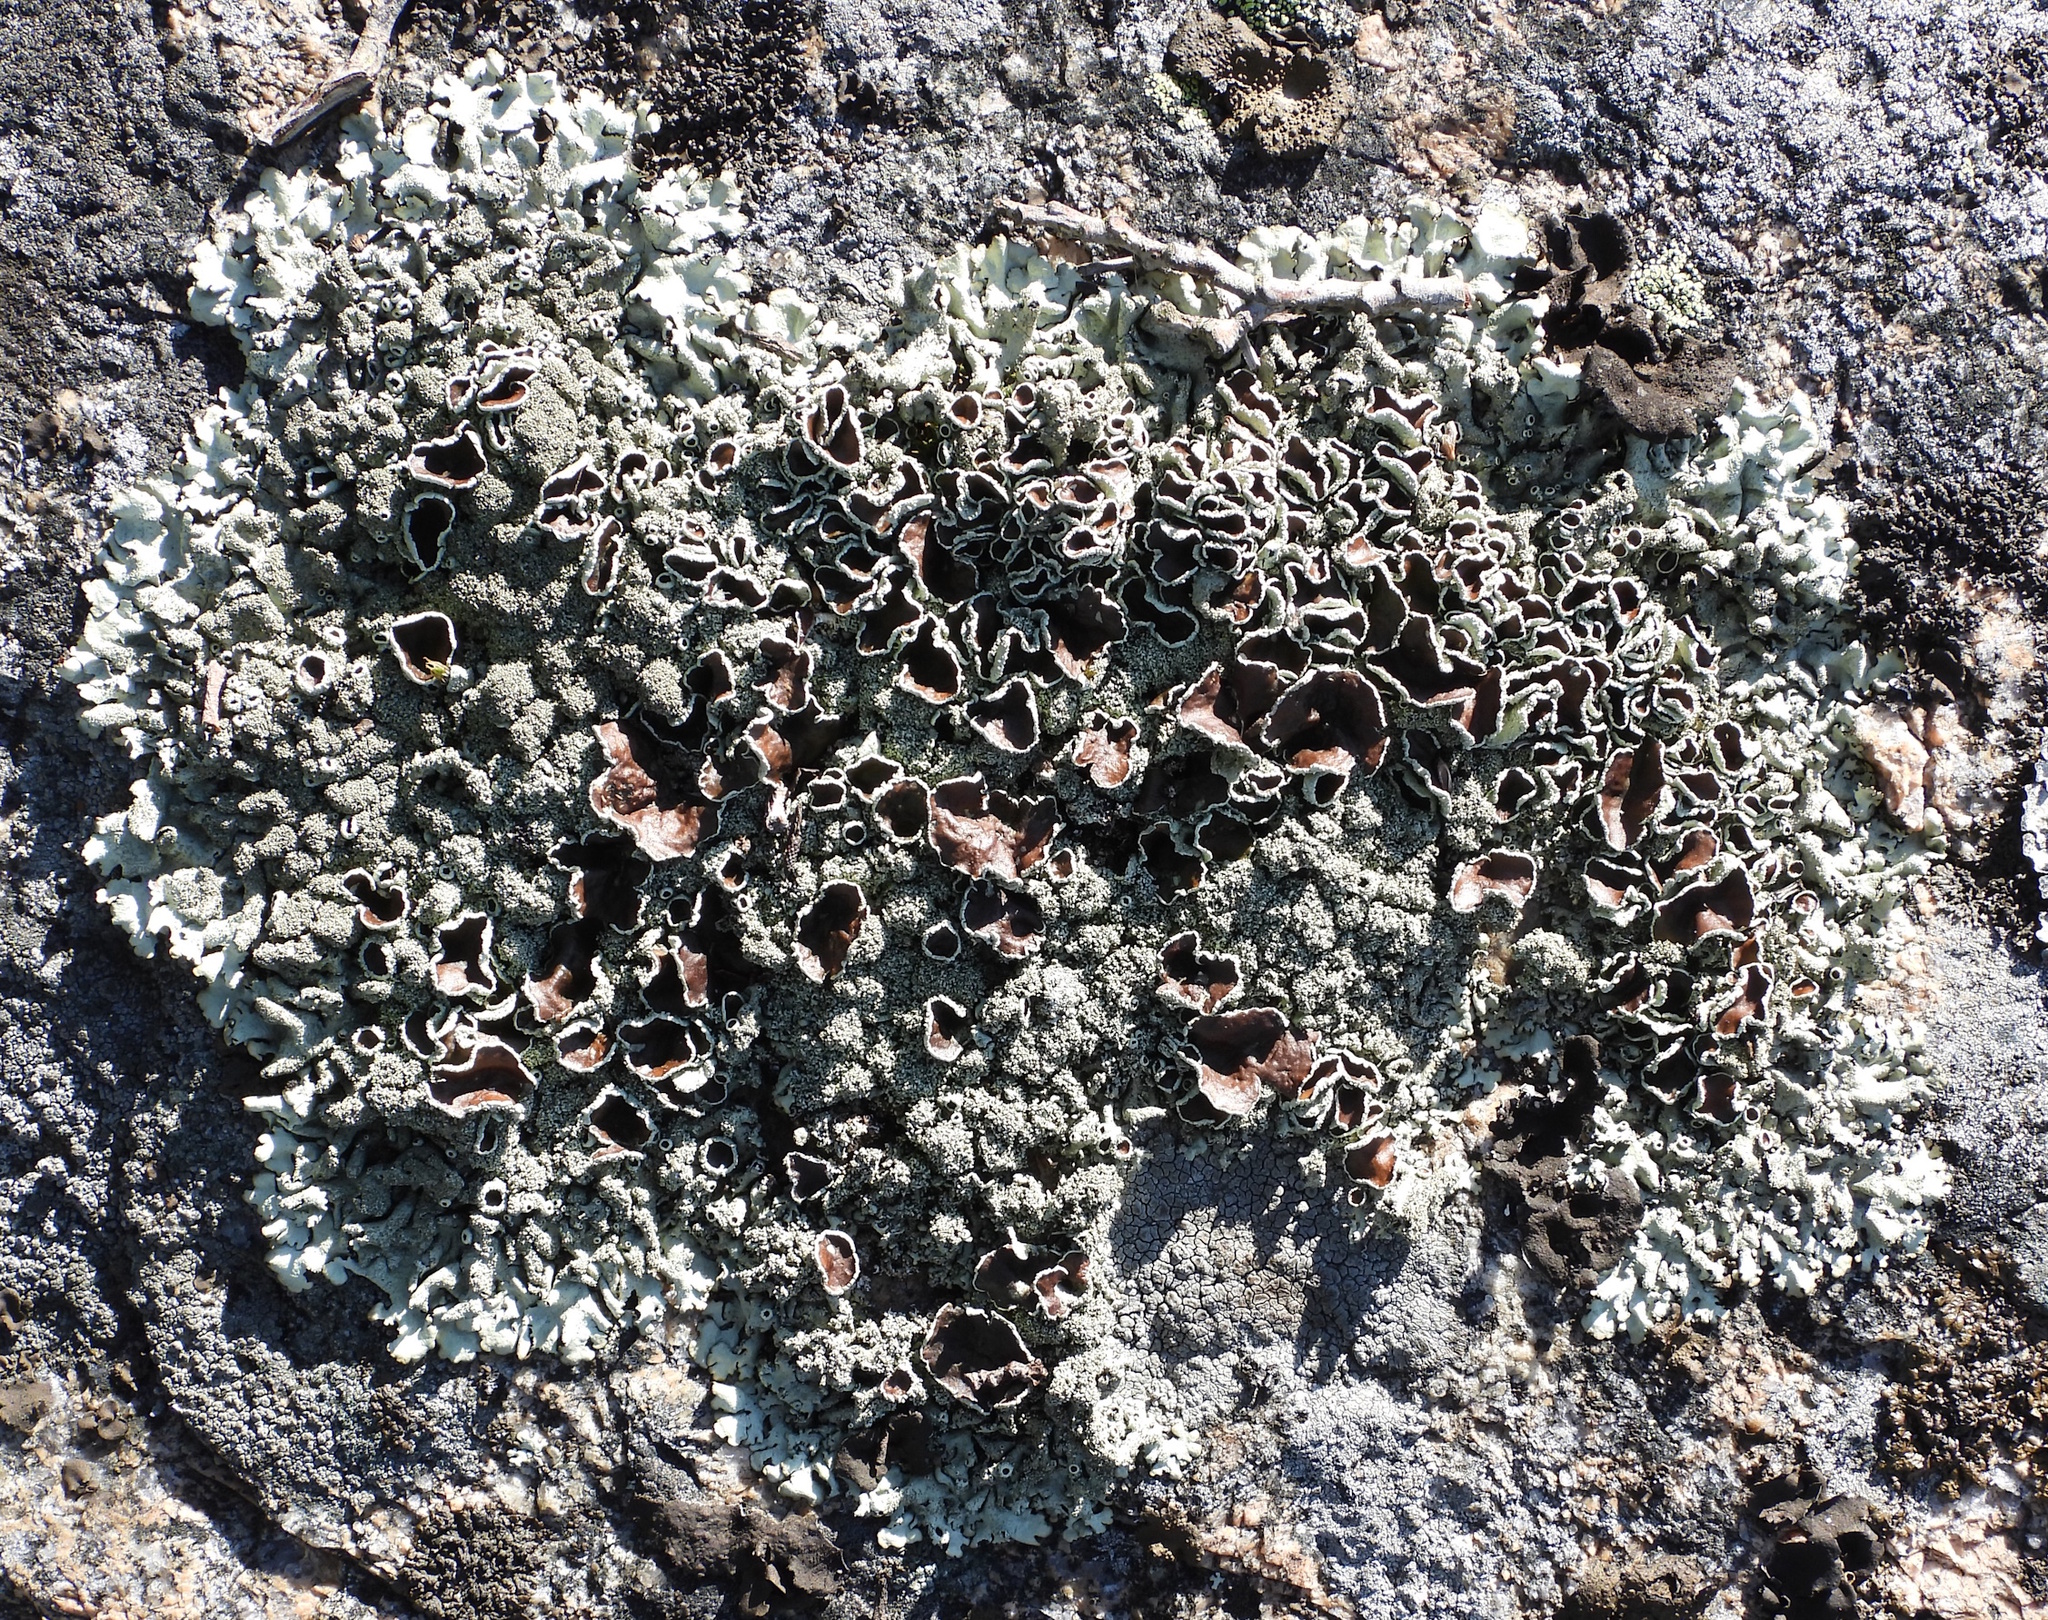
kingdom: Fungi
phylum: Ascomycota
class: Lecanoromycetes
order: Lecanorales
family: Parmeliaceae
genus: Xanthoparmelia
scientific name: Xanthoparmelia conspersa
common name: Peppered rock shield
